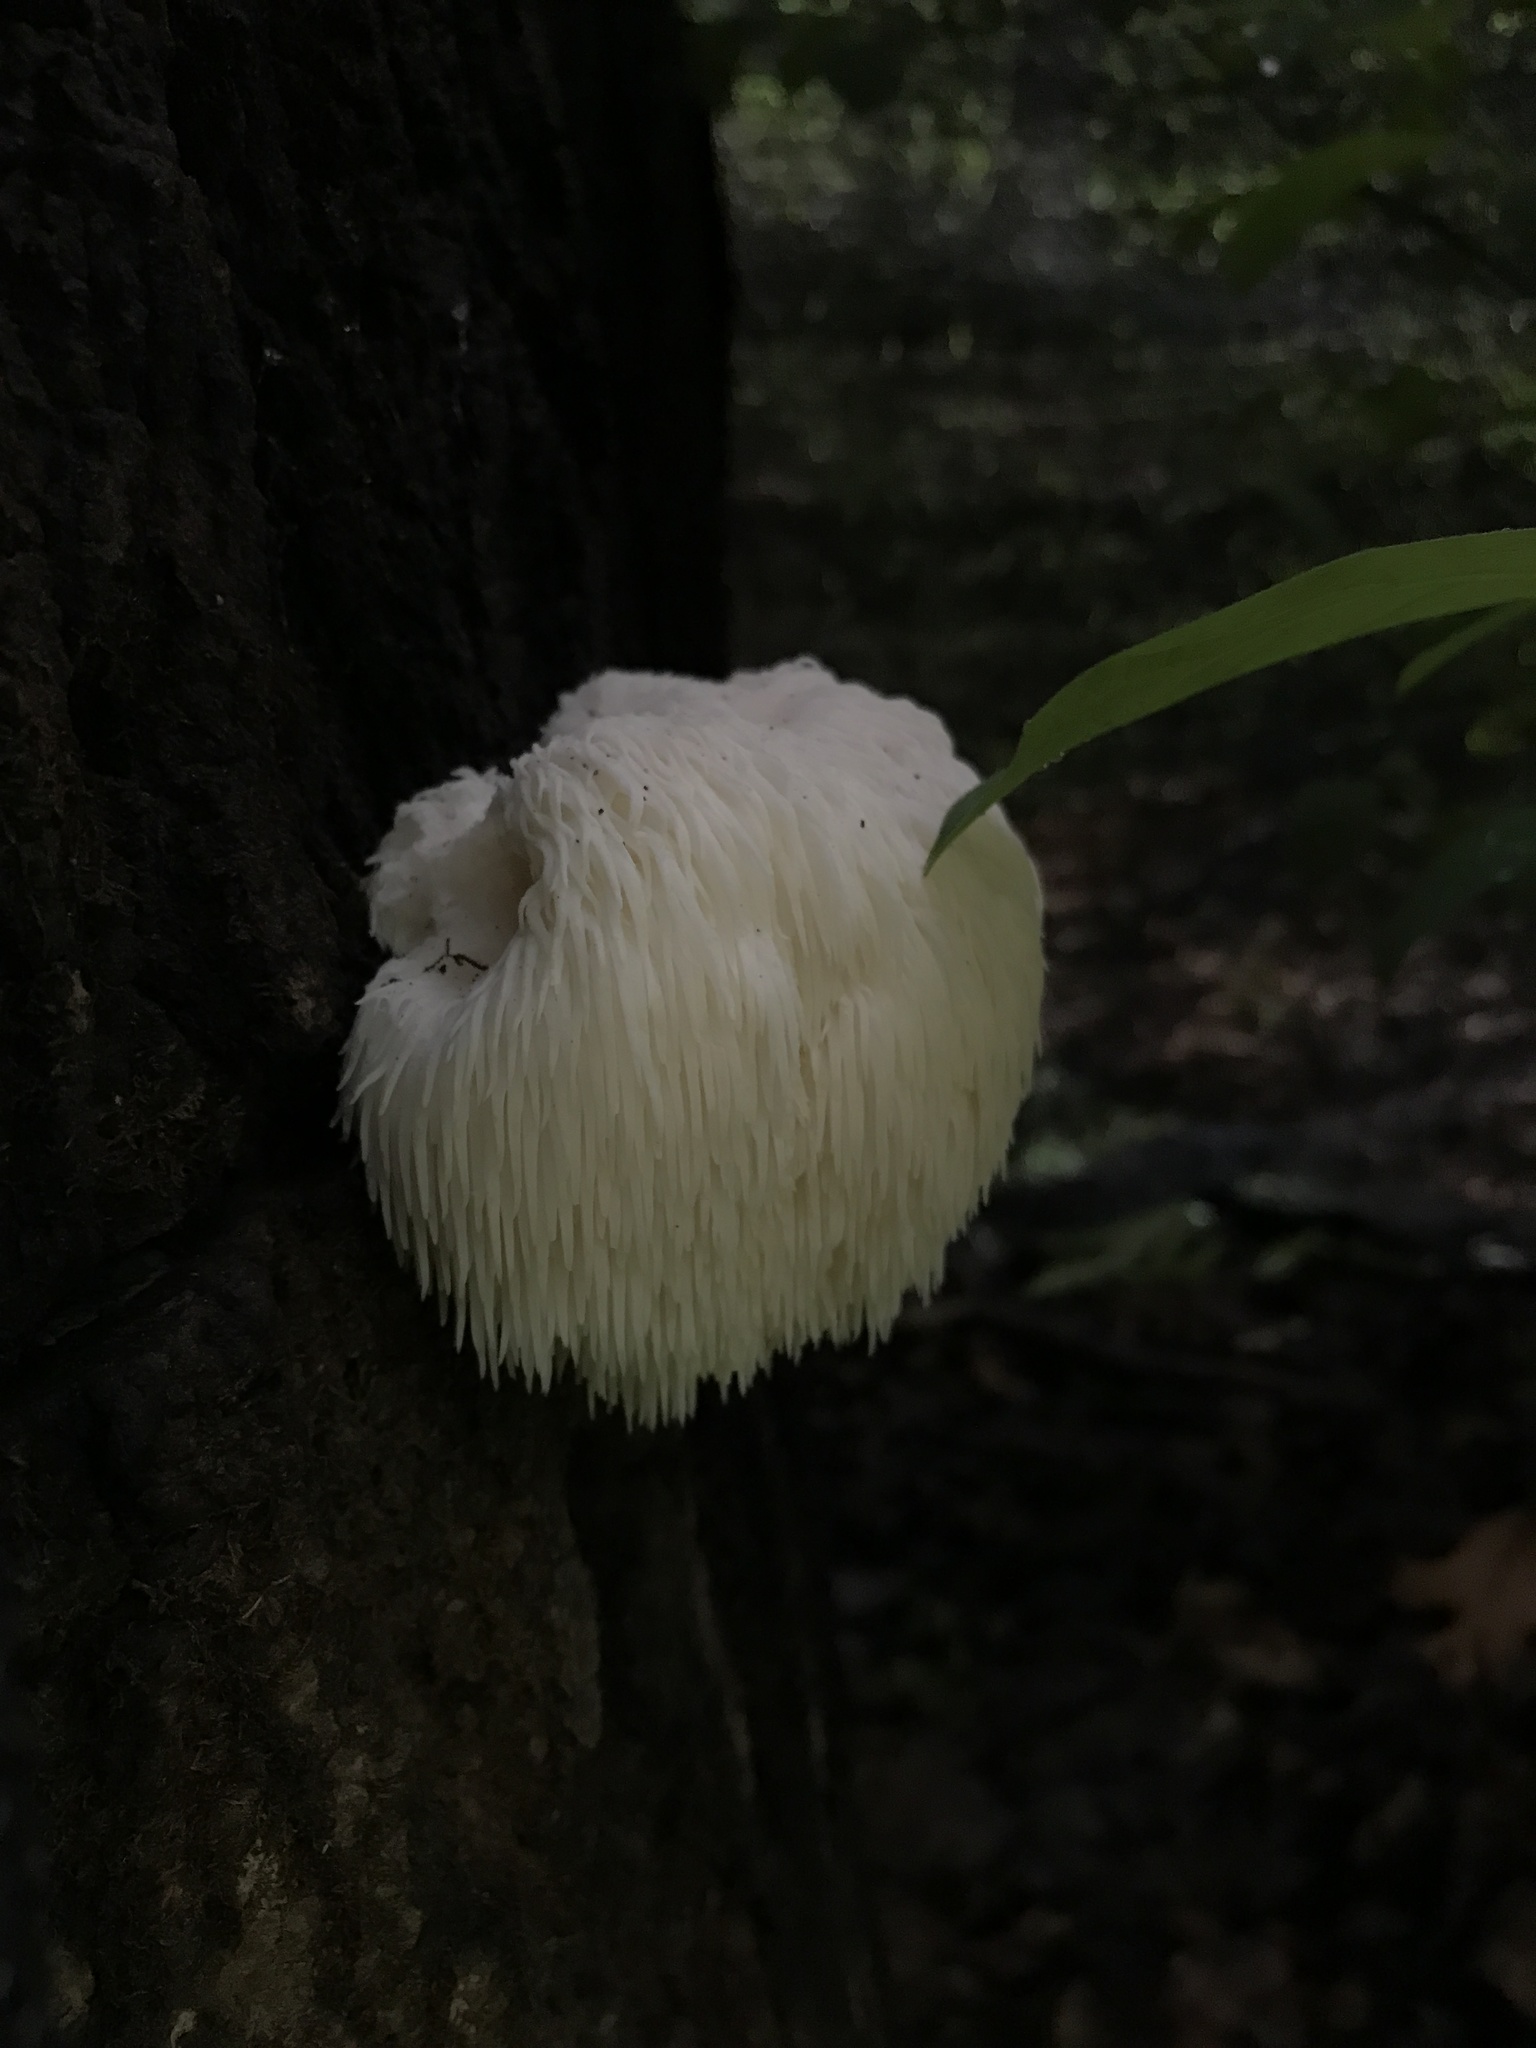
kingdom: Fungi
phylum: Basidiomycota
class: Agaricomycetes
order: Russulales
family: Hericiaceae
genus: Hericium
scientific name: Hericium erinaceus
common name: Bearded tooth
